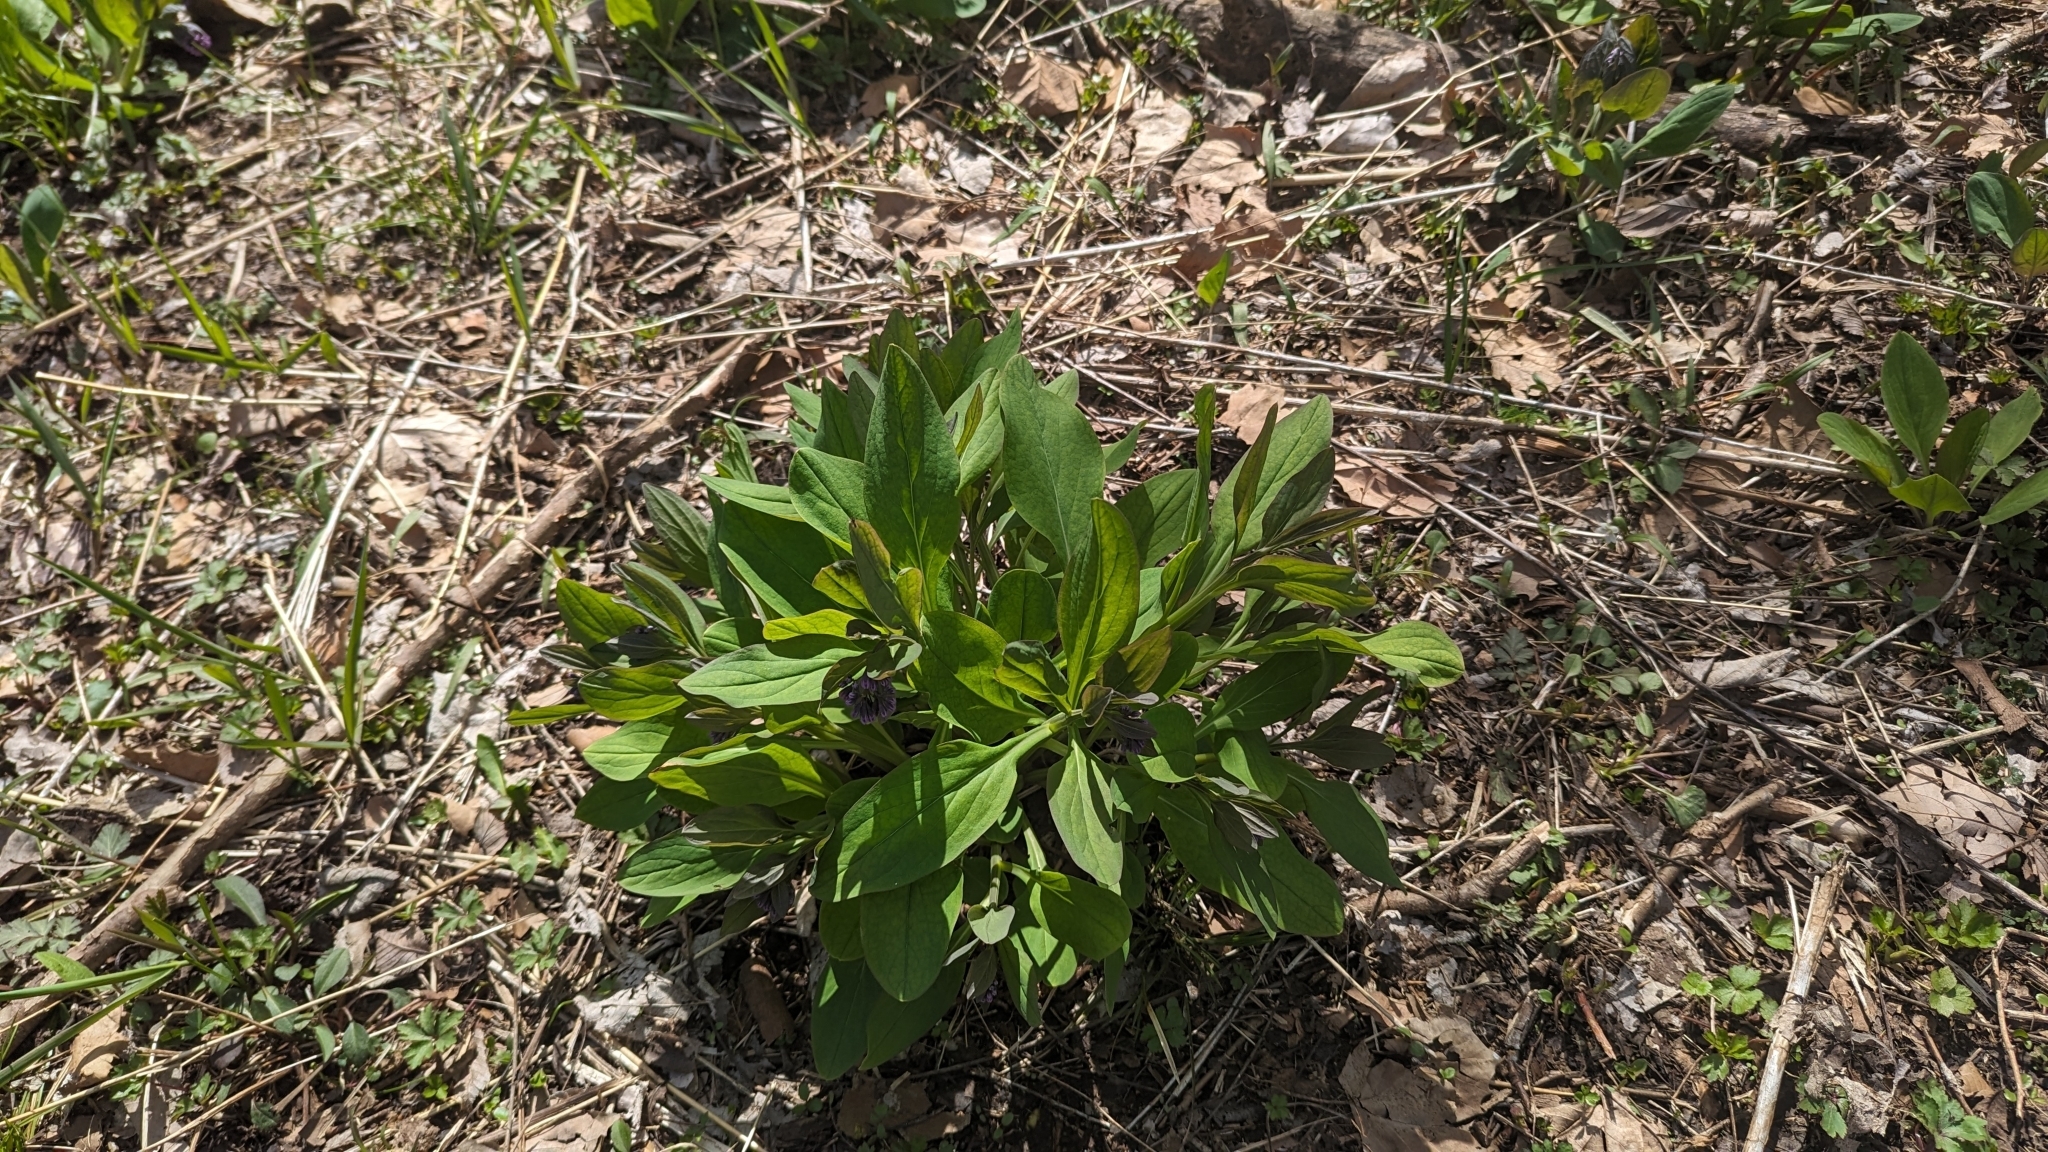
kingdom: Plantae
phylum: Tracheophyta
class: Magnoliopsida
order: Boraginales
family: Boraginaceae
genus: Mertensia
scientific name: Mertensia virginica
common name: Virginia bluebells
